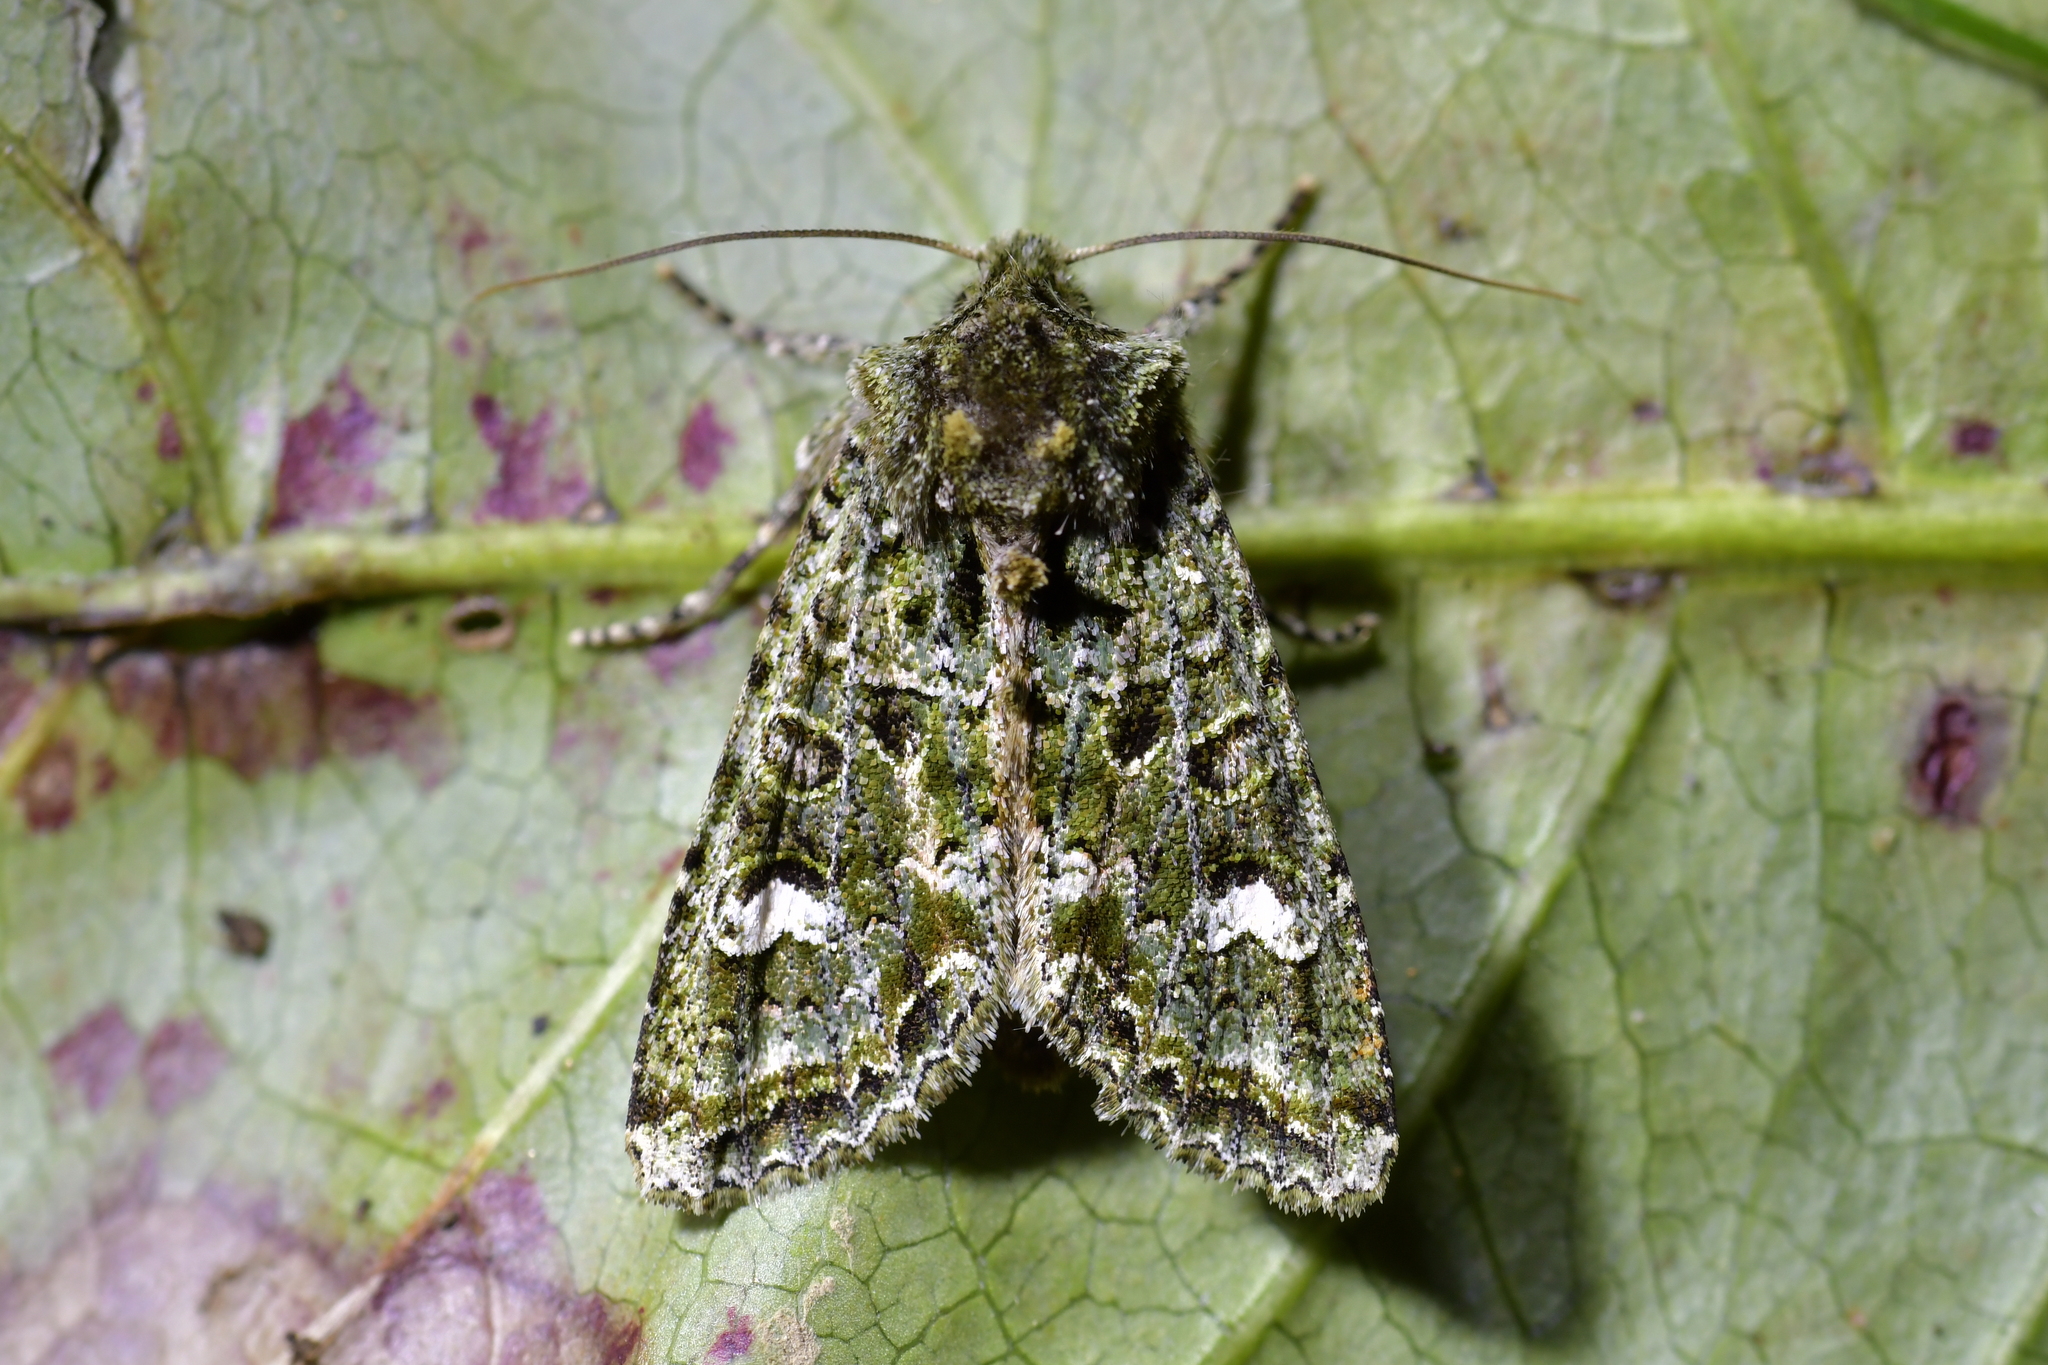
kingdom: Animalia
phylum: Arthropoda
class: Insecta
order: Lepidoptera
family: Noctuidae
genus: Ichneutica
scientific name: Ichneutica
